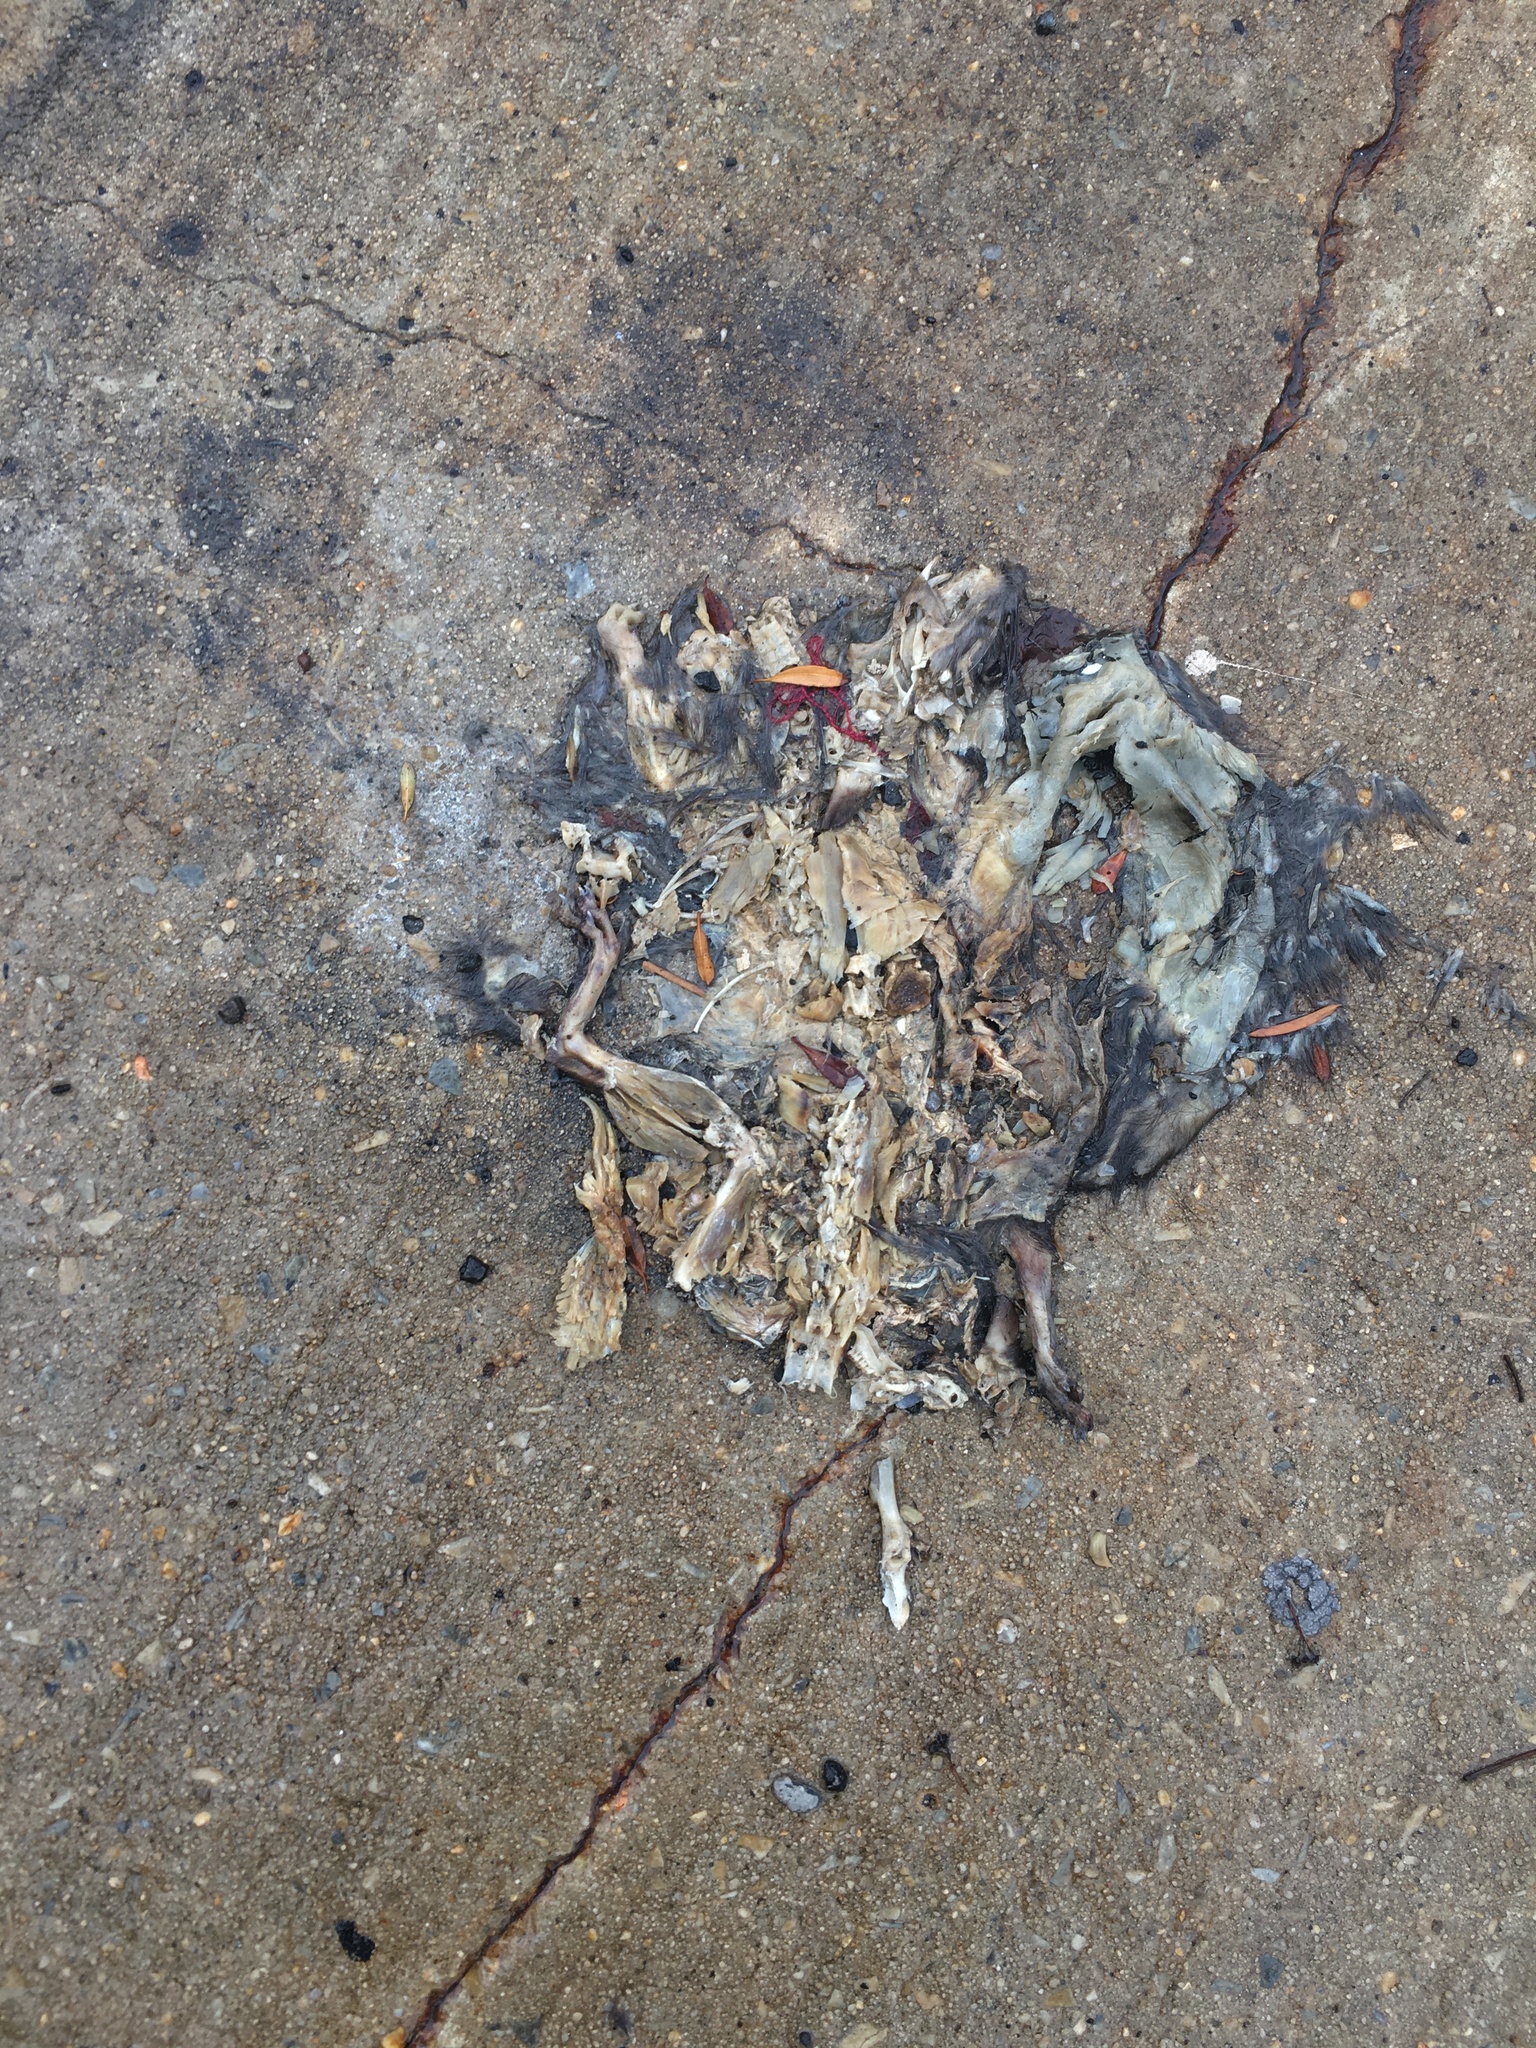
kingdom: Animalia
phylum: Chordata
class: Mammalia
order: Rodentia
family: Sciuridae
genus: Sciurus
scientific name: Sciurus carolinensis
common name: Eastern gray squirrel
